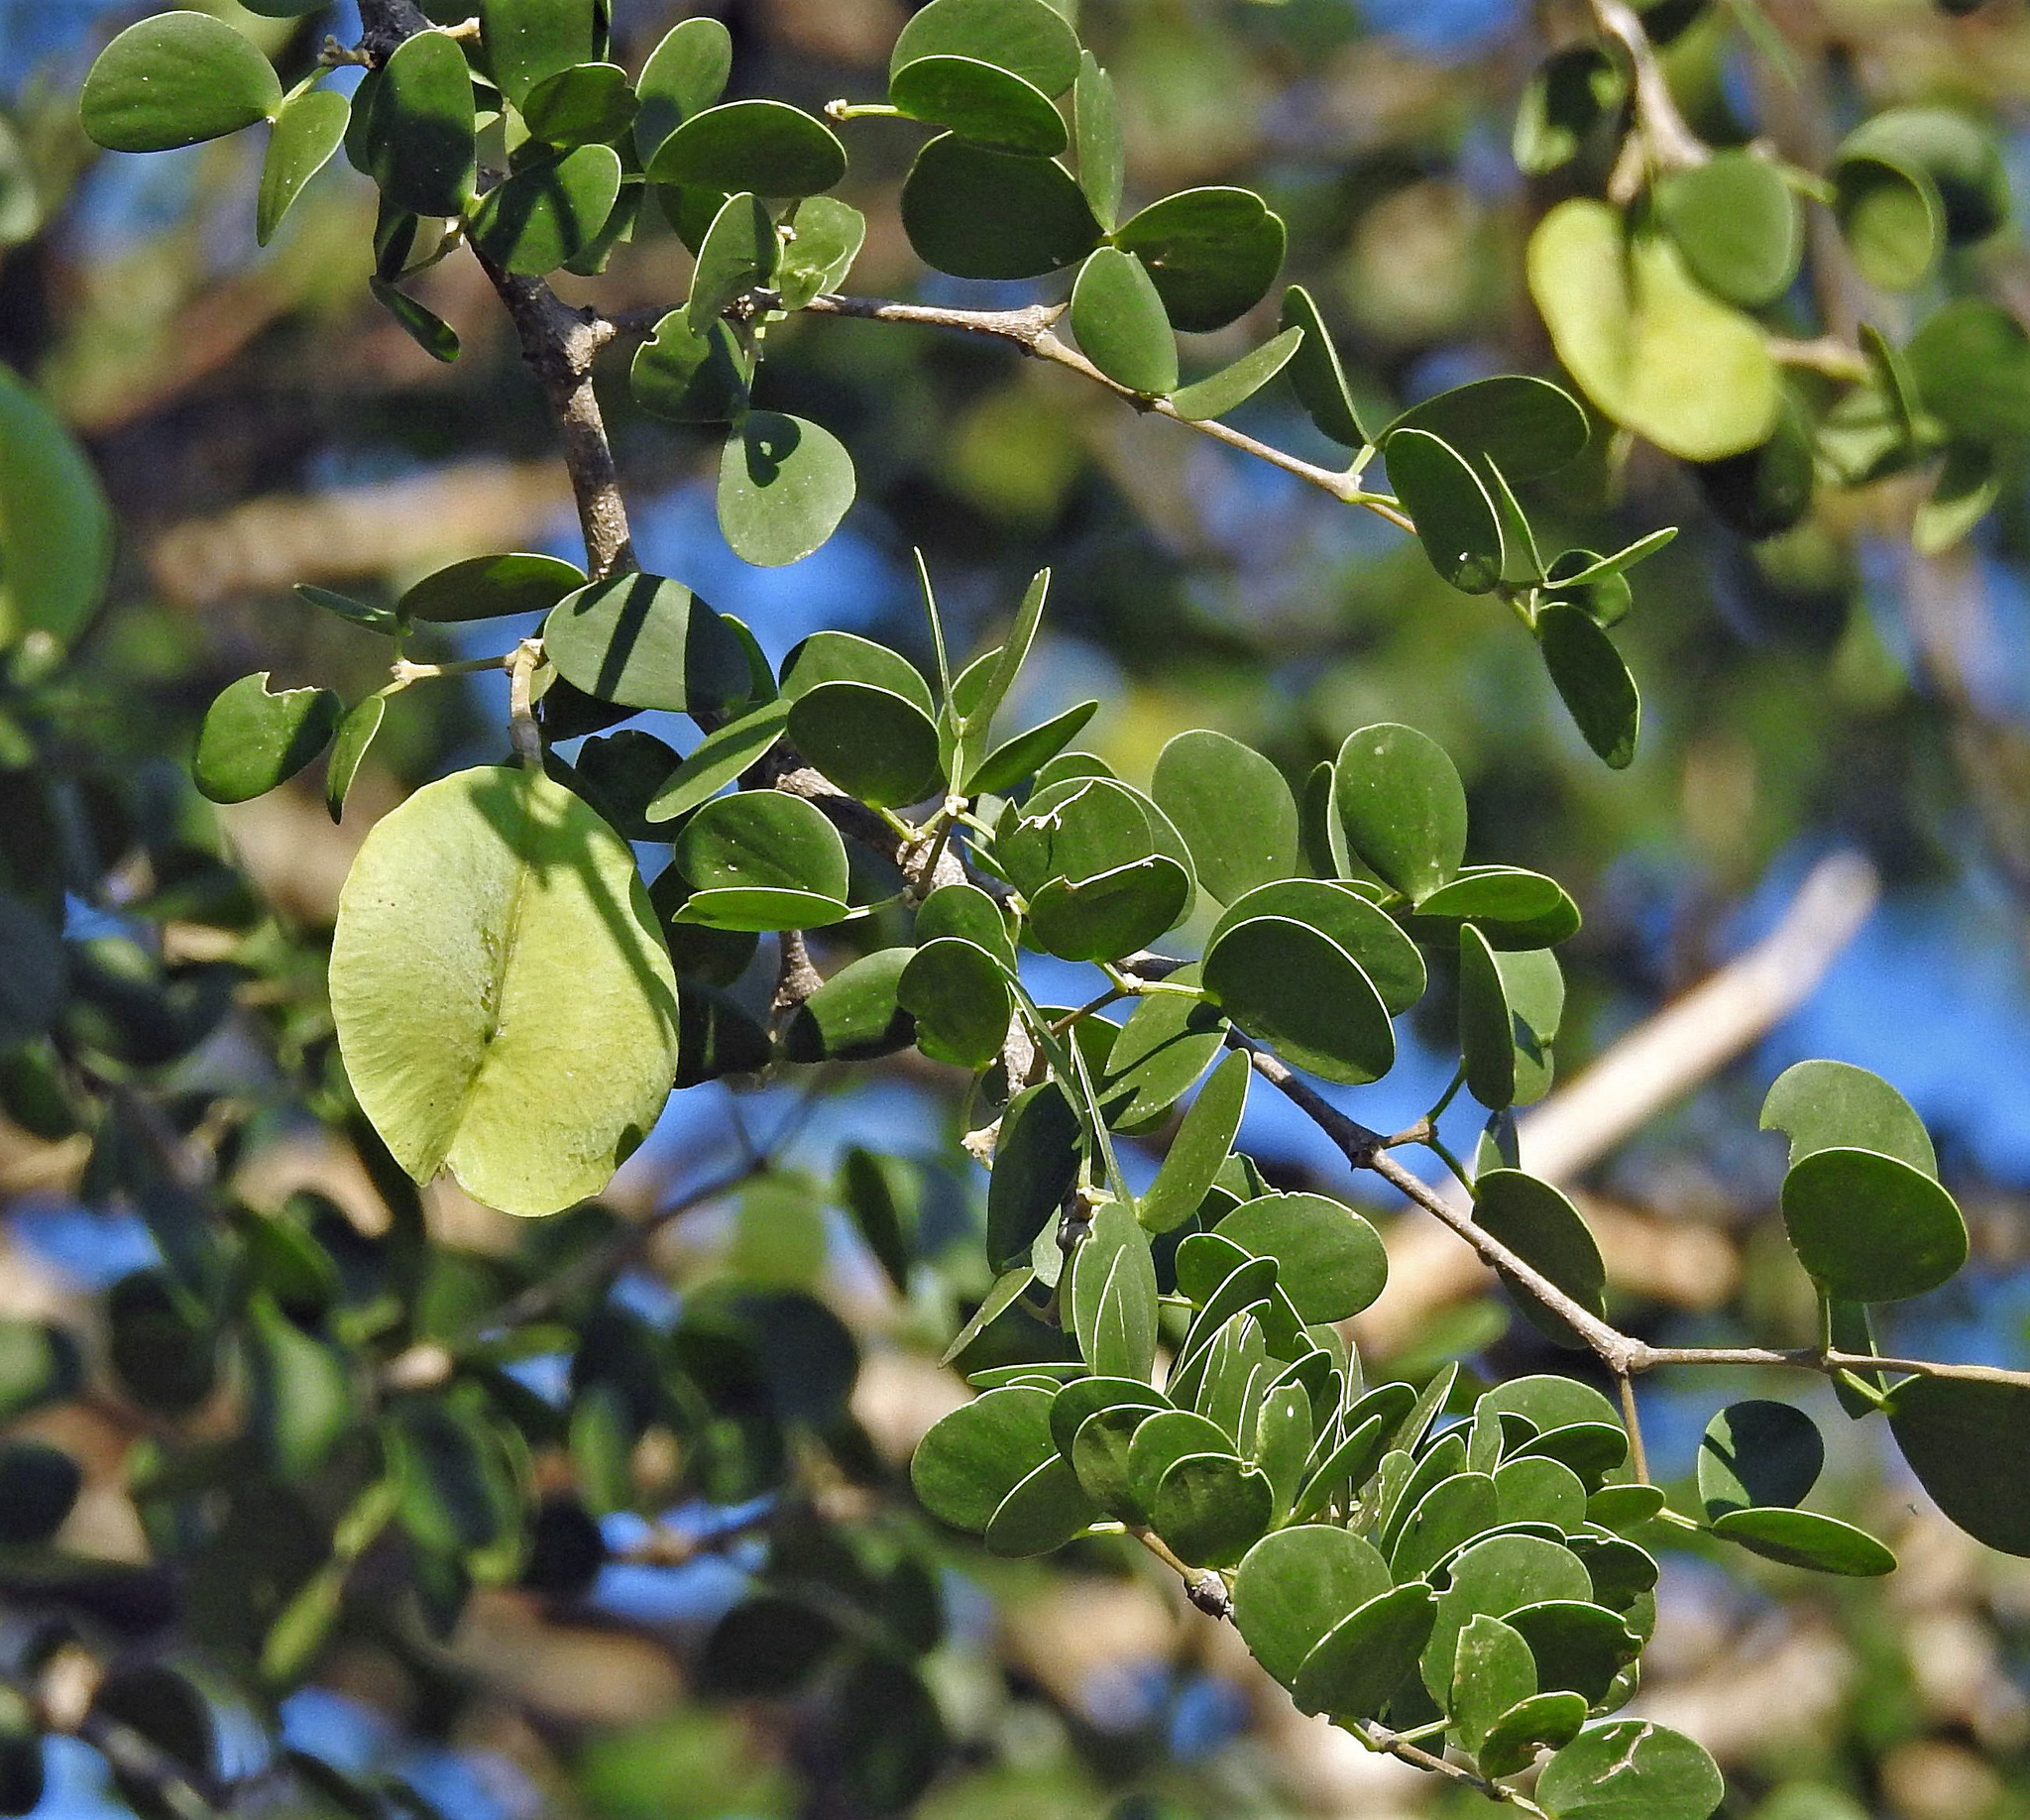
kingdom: Plantae
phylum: Tracheophyta
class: Magnoliopsida
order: Zygophyllales
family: Zygophyllaceae
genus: Gonopterodendron
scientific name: Gonopterodendron sarmientoi
